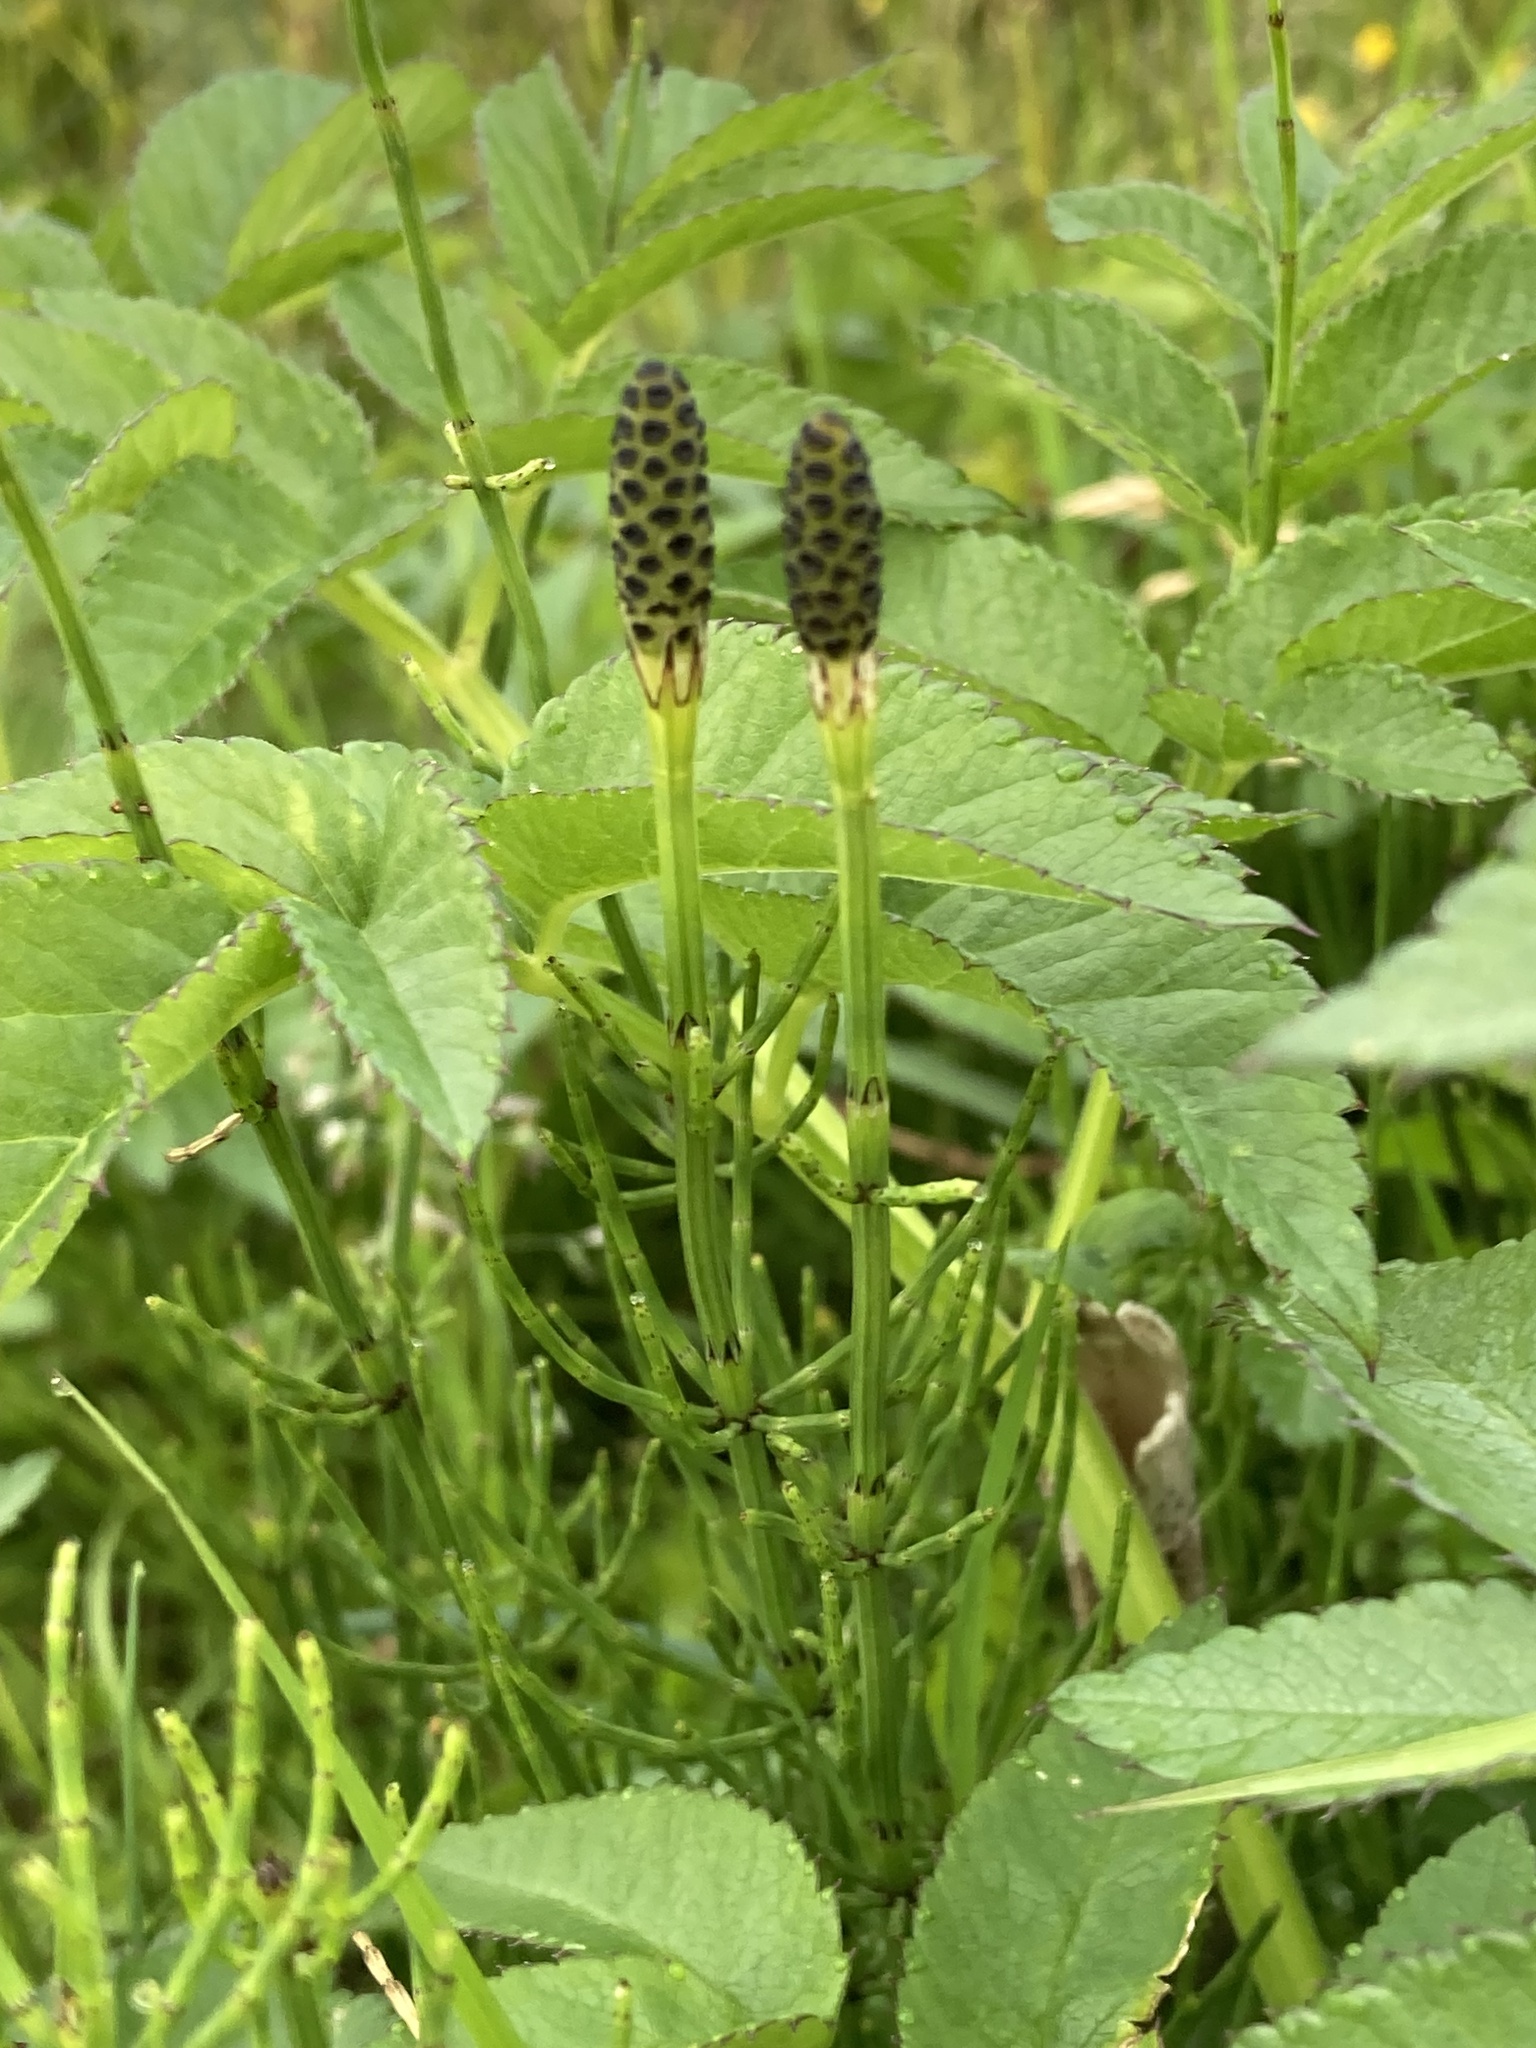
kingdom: Plantae
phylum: Tracheophyta
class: Polypodiopsida
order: Equisetales
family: Equisetaceae
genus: Equisetum
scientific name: Equisetum palustre
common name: Marsh horsetail
